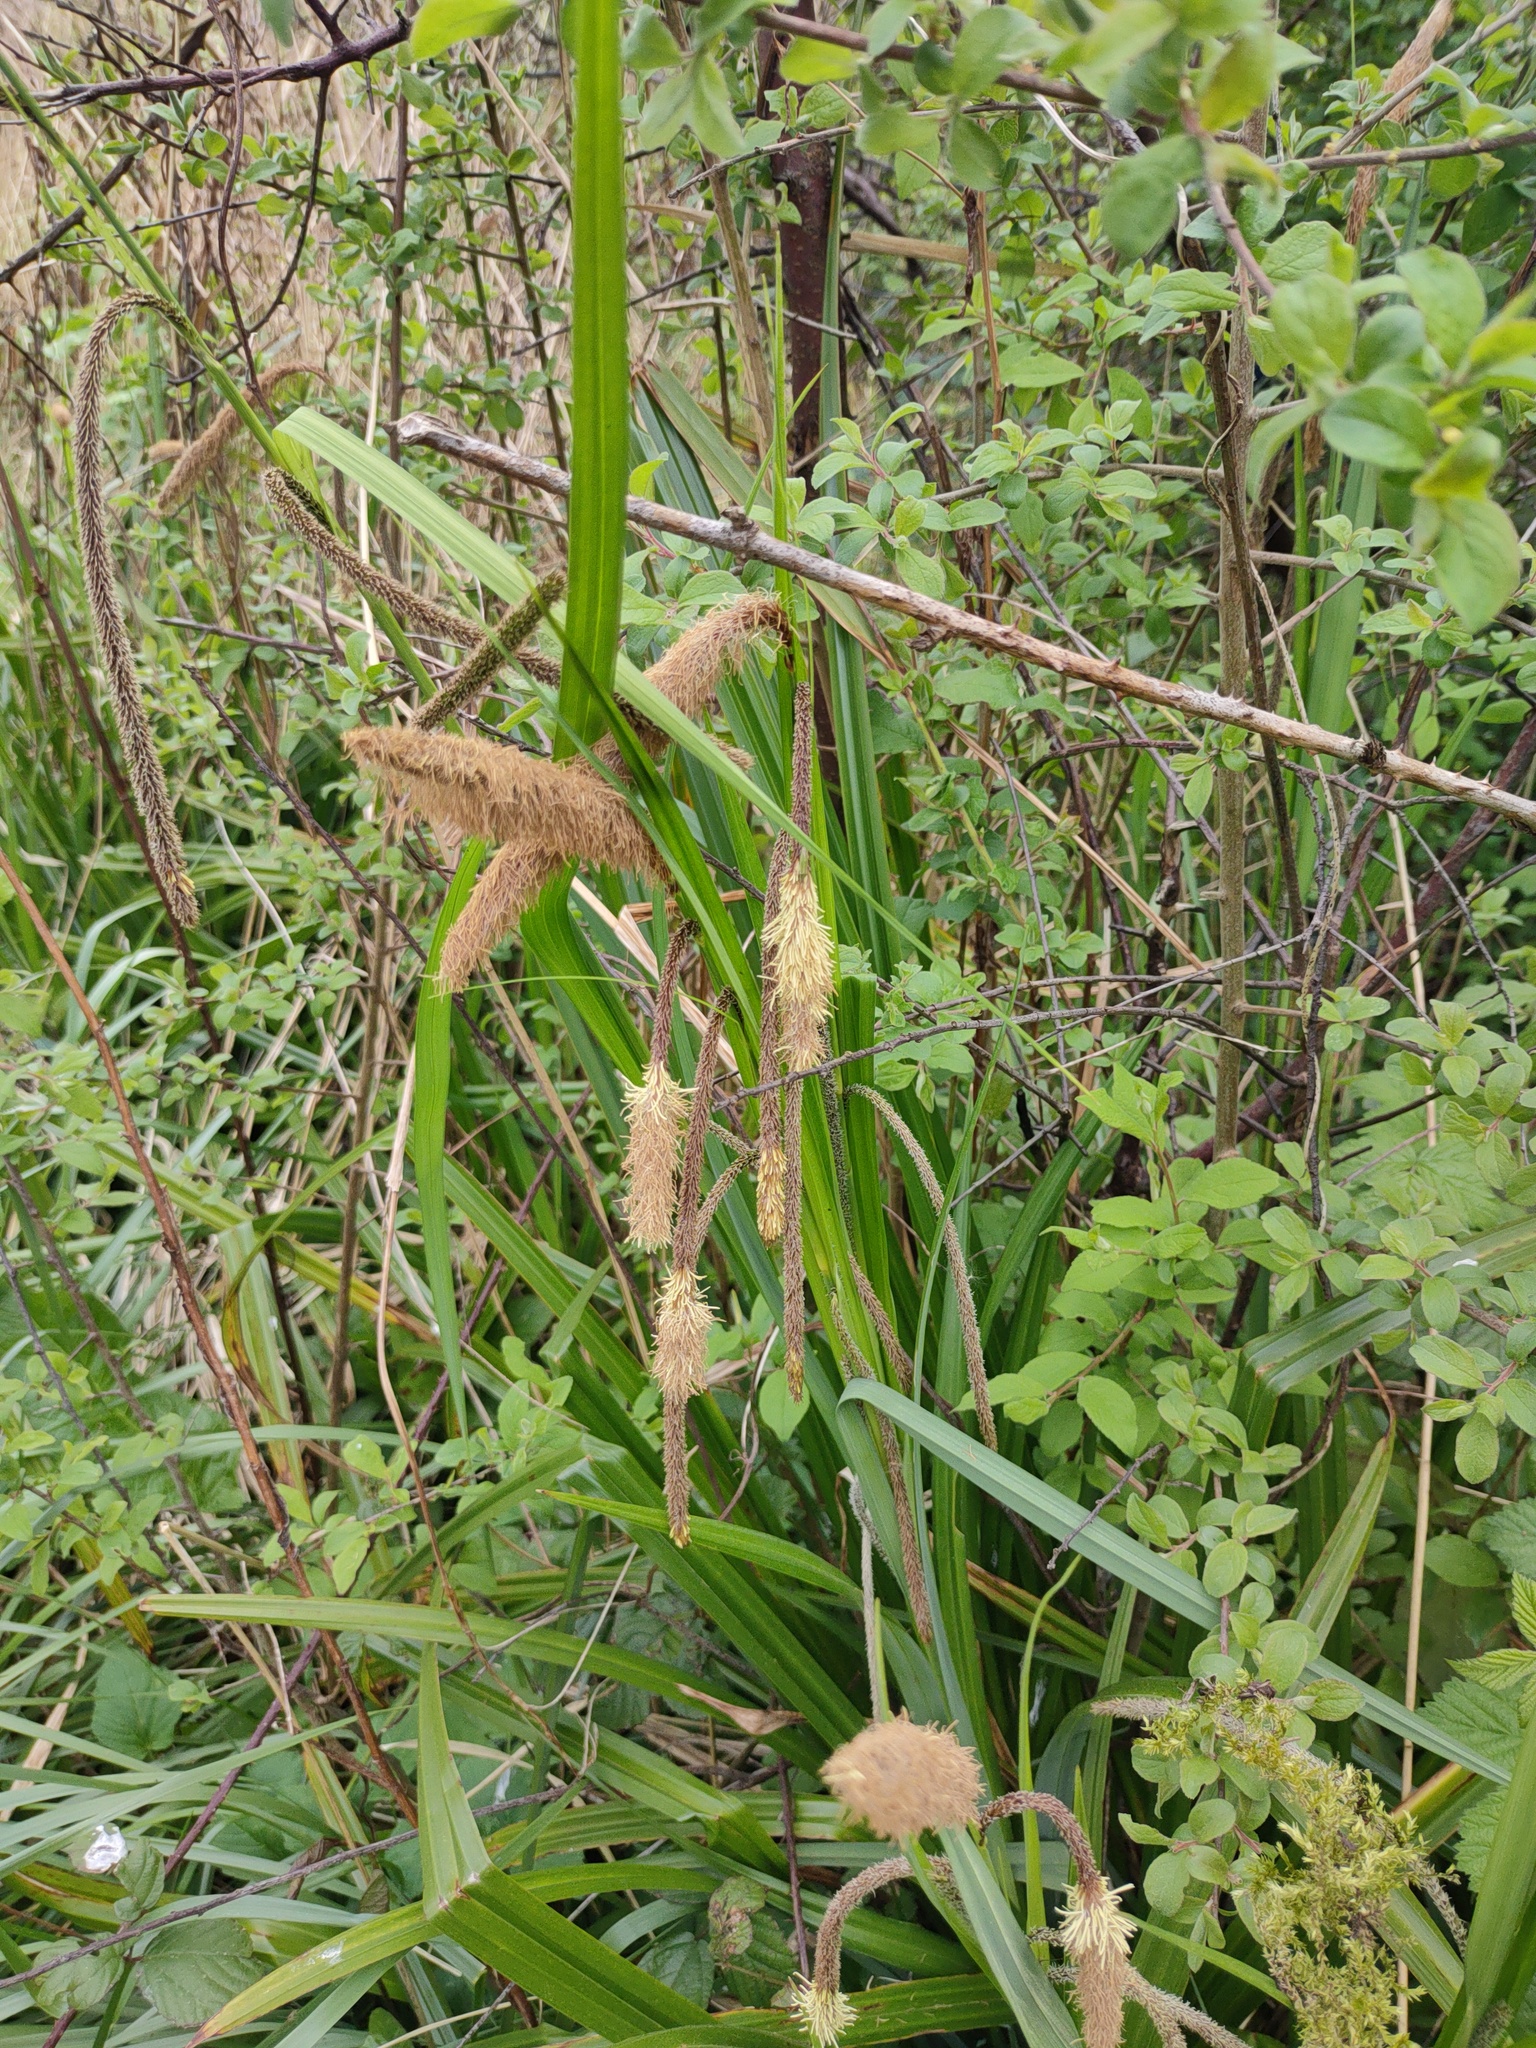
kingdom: Plantae
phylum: Tracheophyta
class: Liliopsida
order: Poales
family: Cyperaceae
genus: Carex
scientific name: Carex pendula
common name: Pendulous sedge
